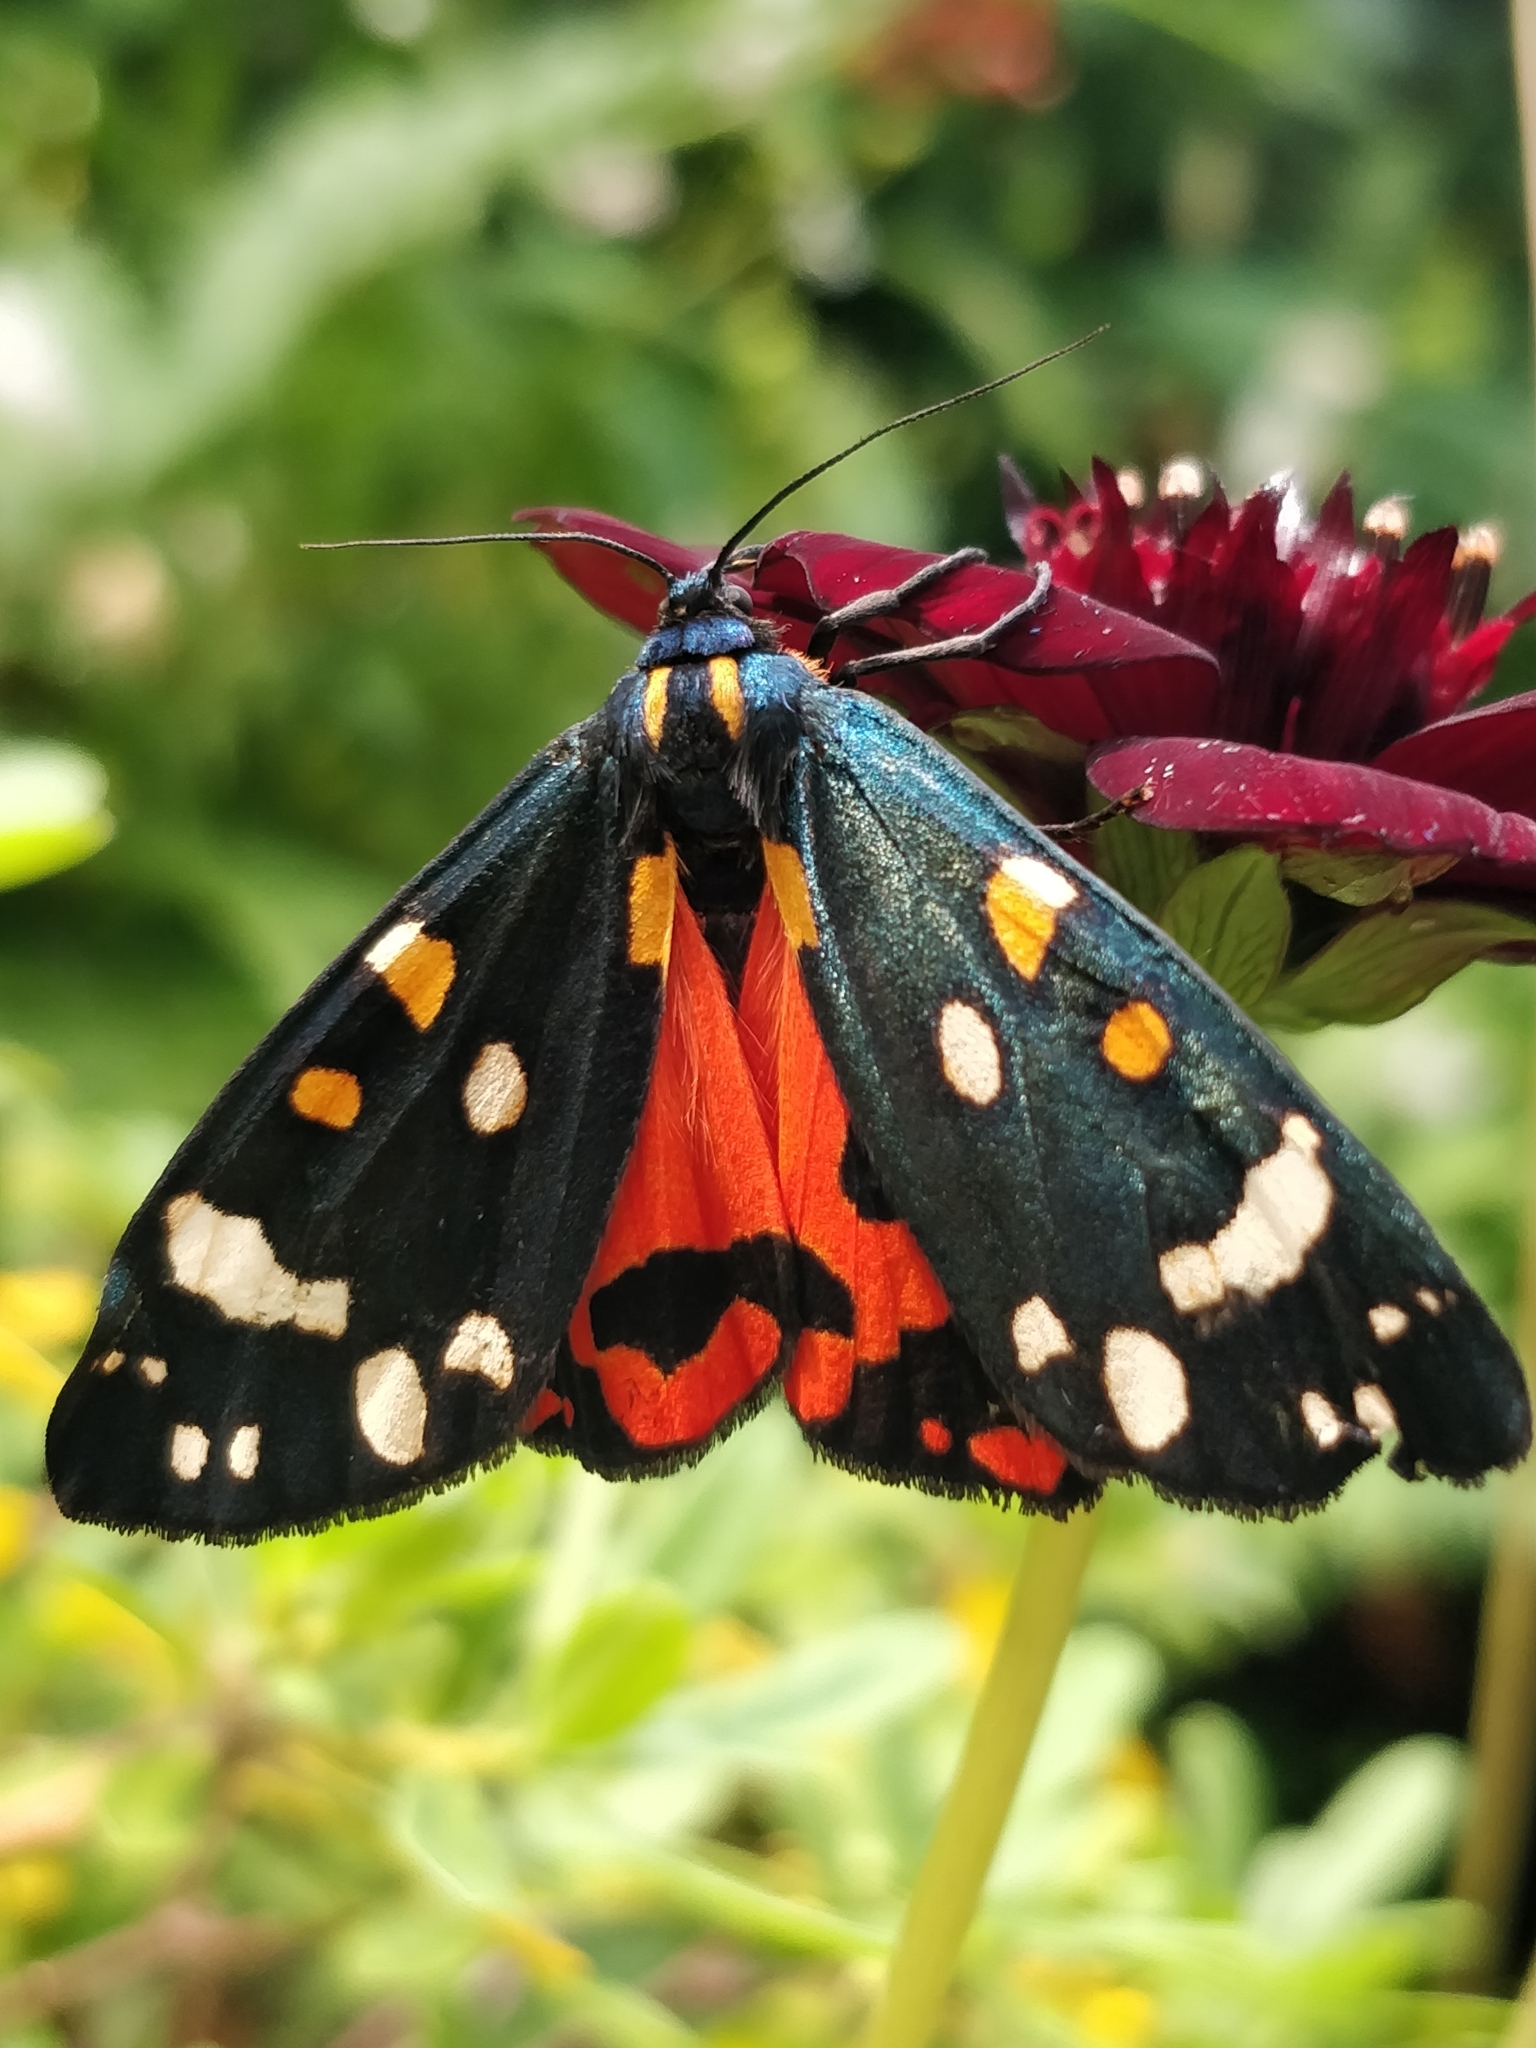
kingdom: Animalia
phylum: Arthropoda
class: Insecta
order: Lepidoptera
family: Erebidae
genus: Callimorpha
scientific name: Callimorpha dominula
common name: Scarlet tiger
